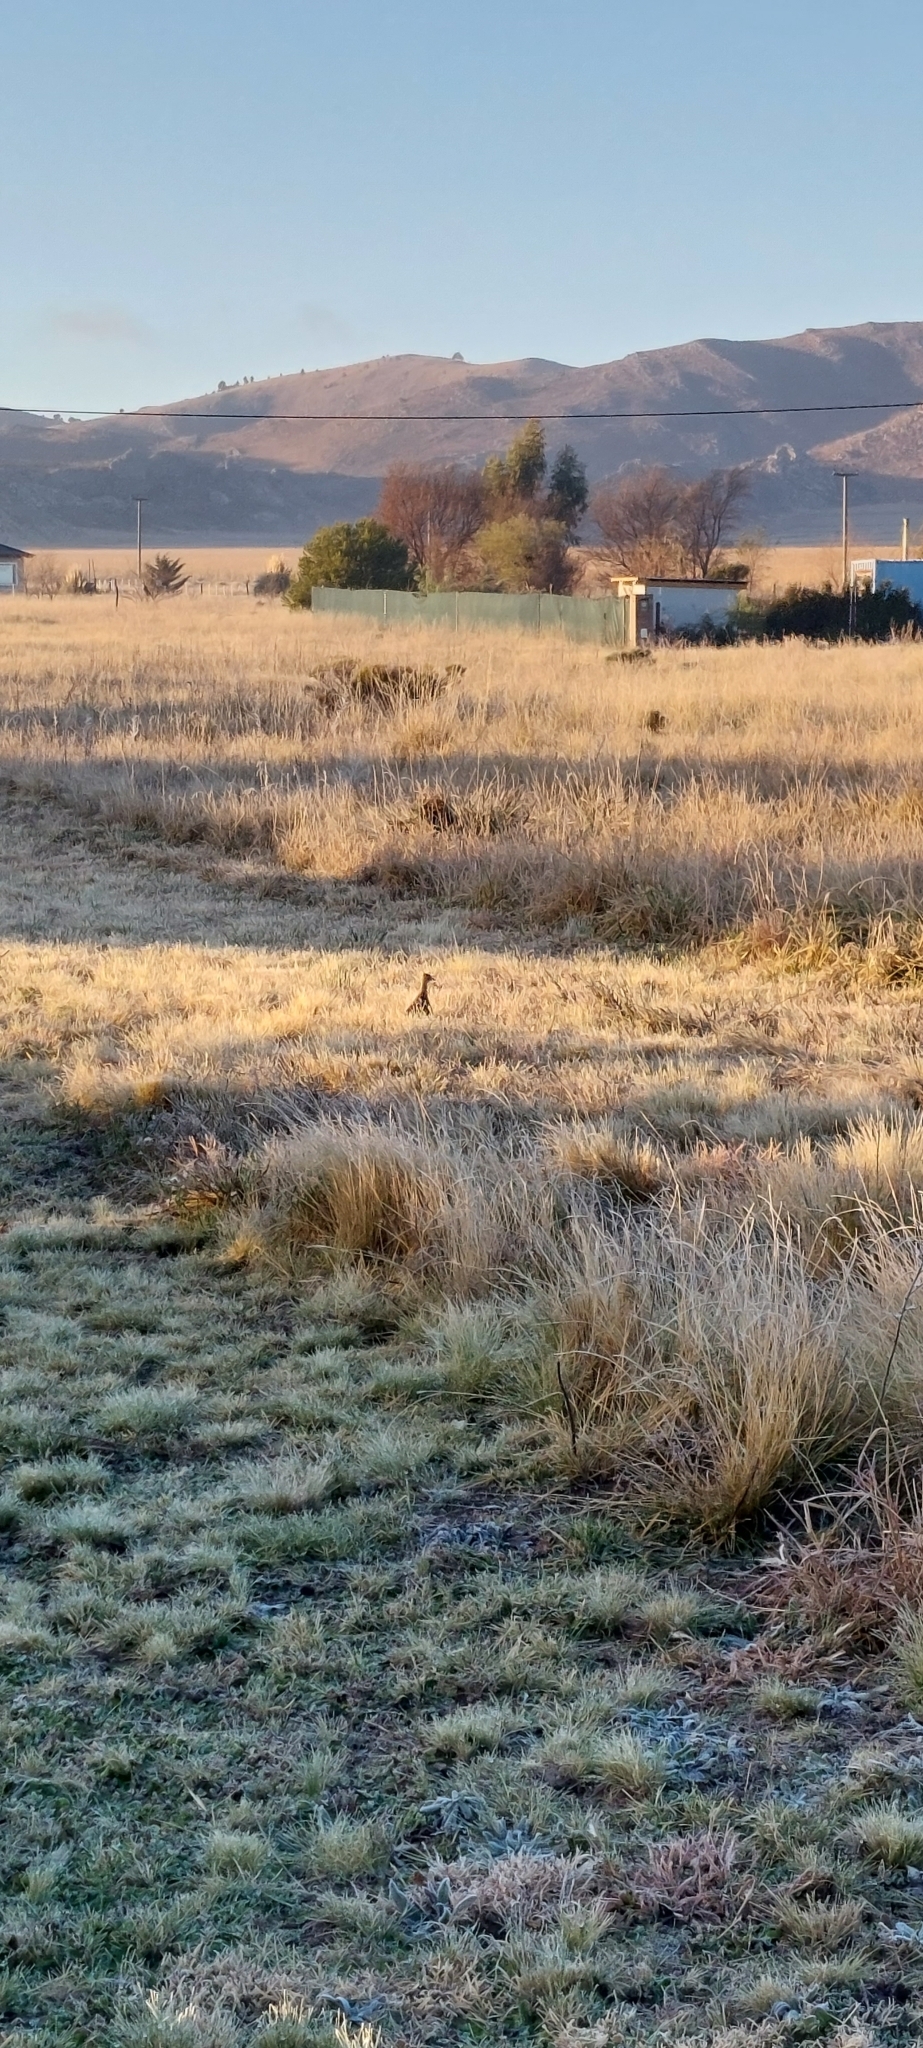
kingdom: Animalia
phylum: Chordata
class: Aves
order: Tinamiformes
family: Tinamidae
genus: Nothura
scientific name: Nothura maculosa
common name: Spotted nothura
